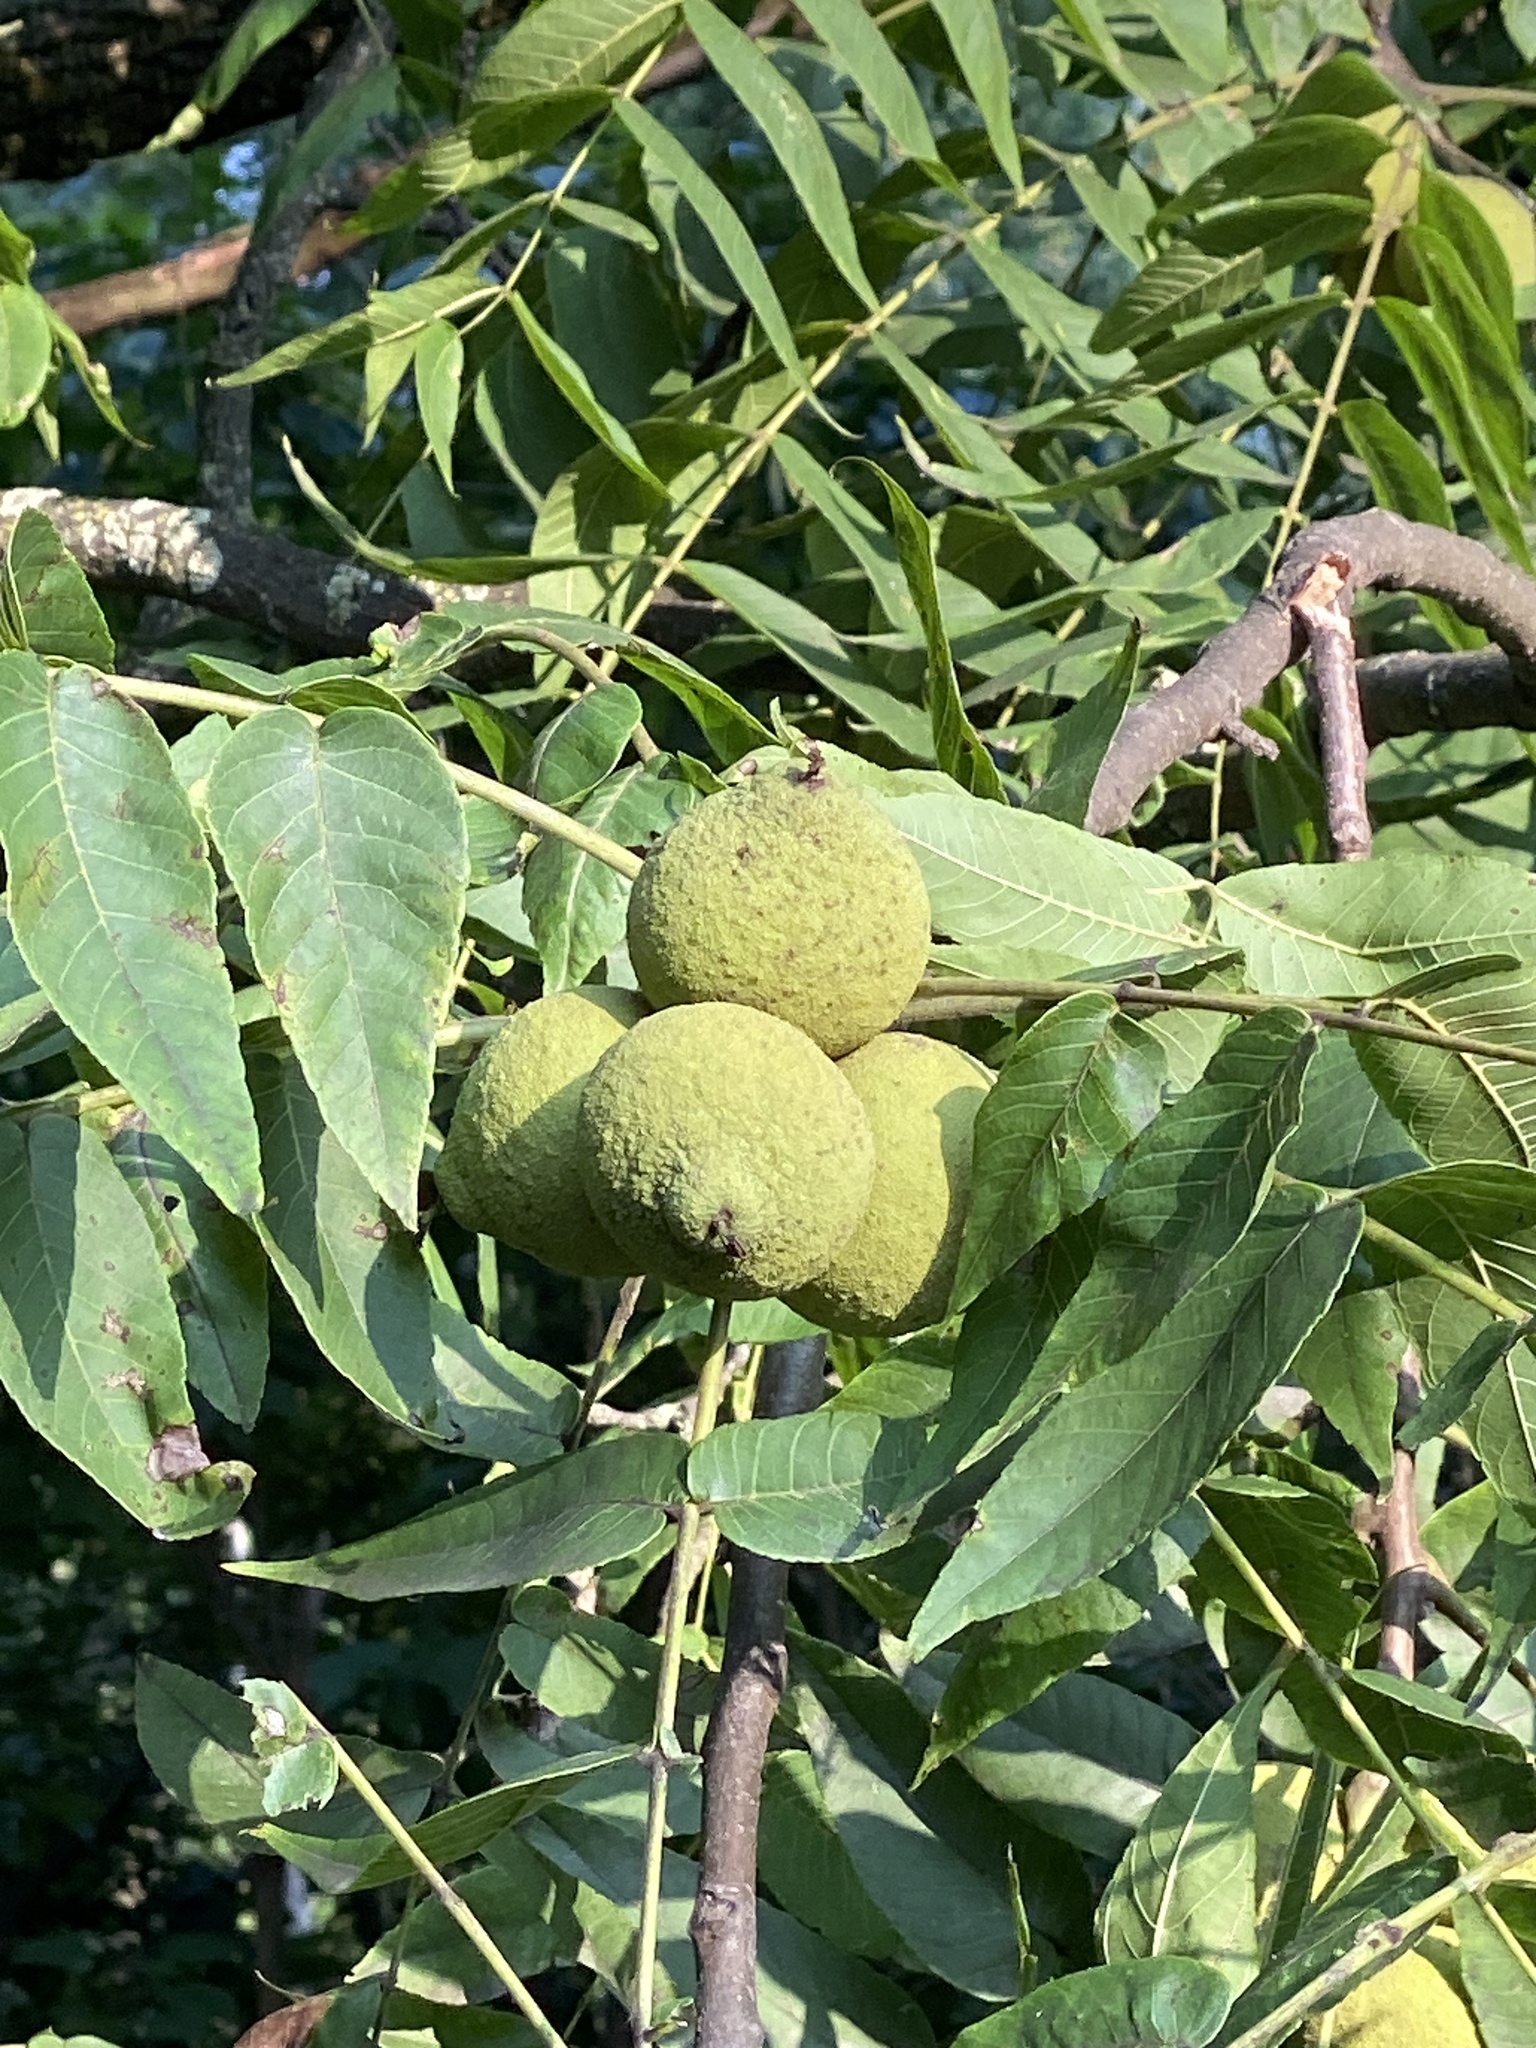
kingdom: Plantae
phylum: Tracheophyta
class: Magnoliopsida
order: Fagales
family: Juglandaceae
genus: Juglans
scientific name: Juglans nigra
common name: Black walnut
